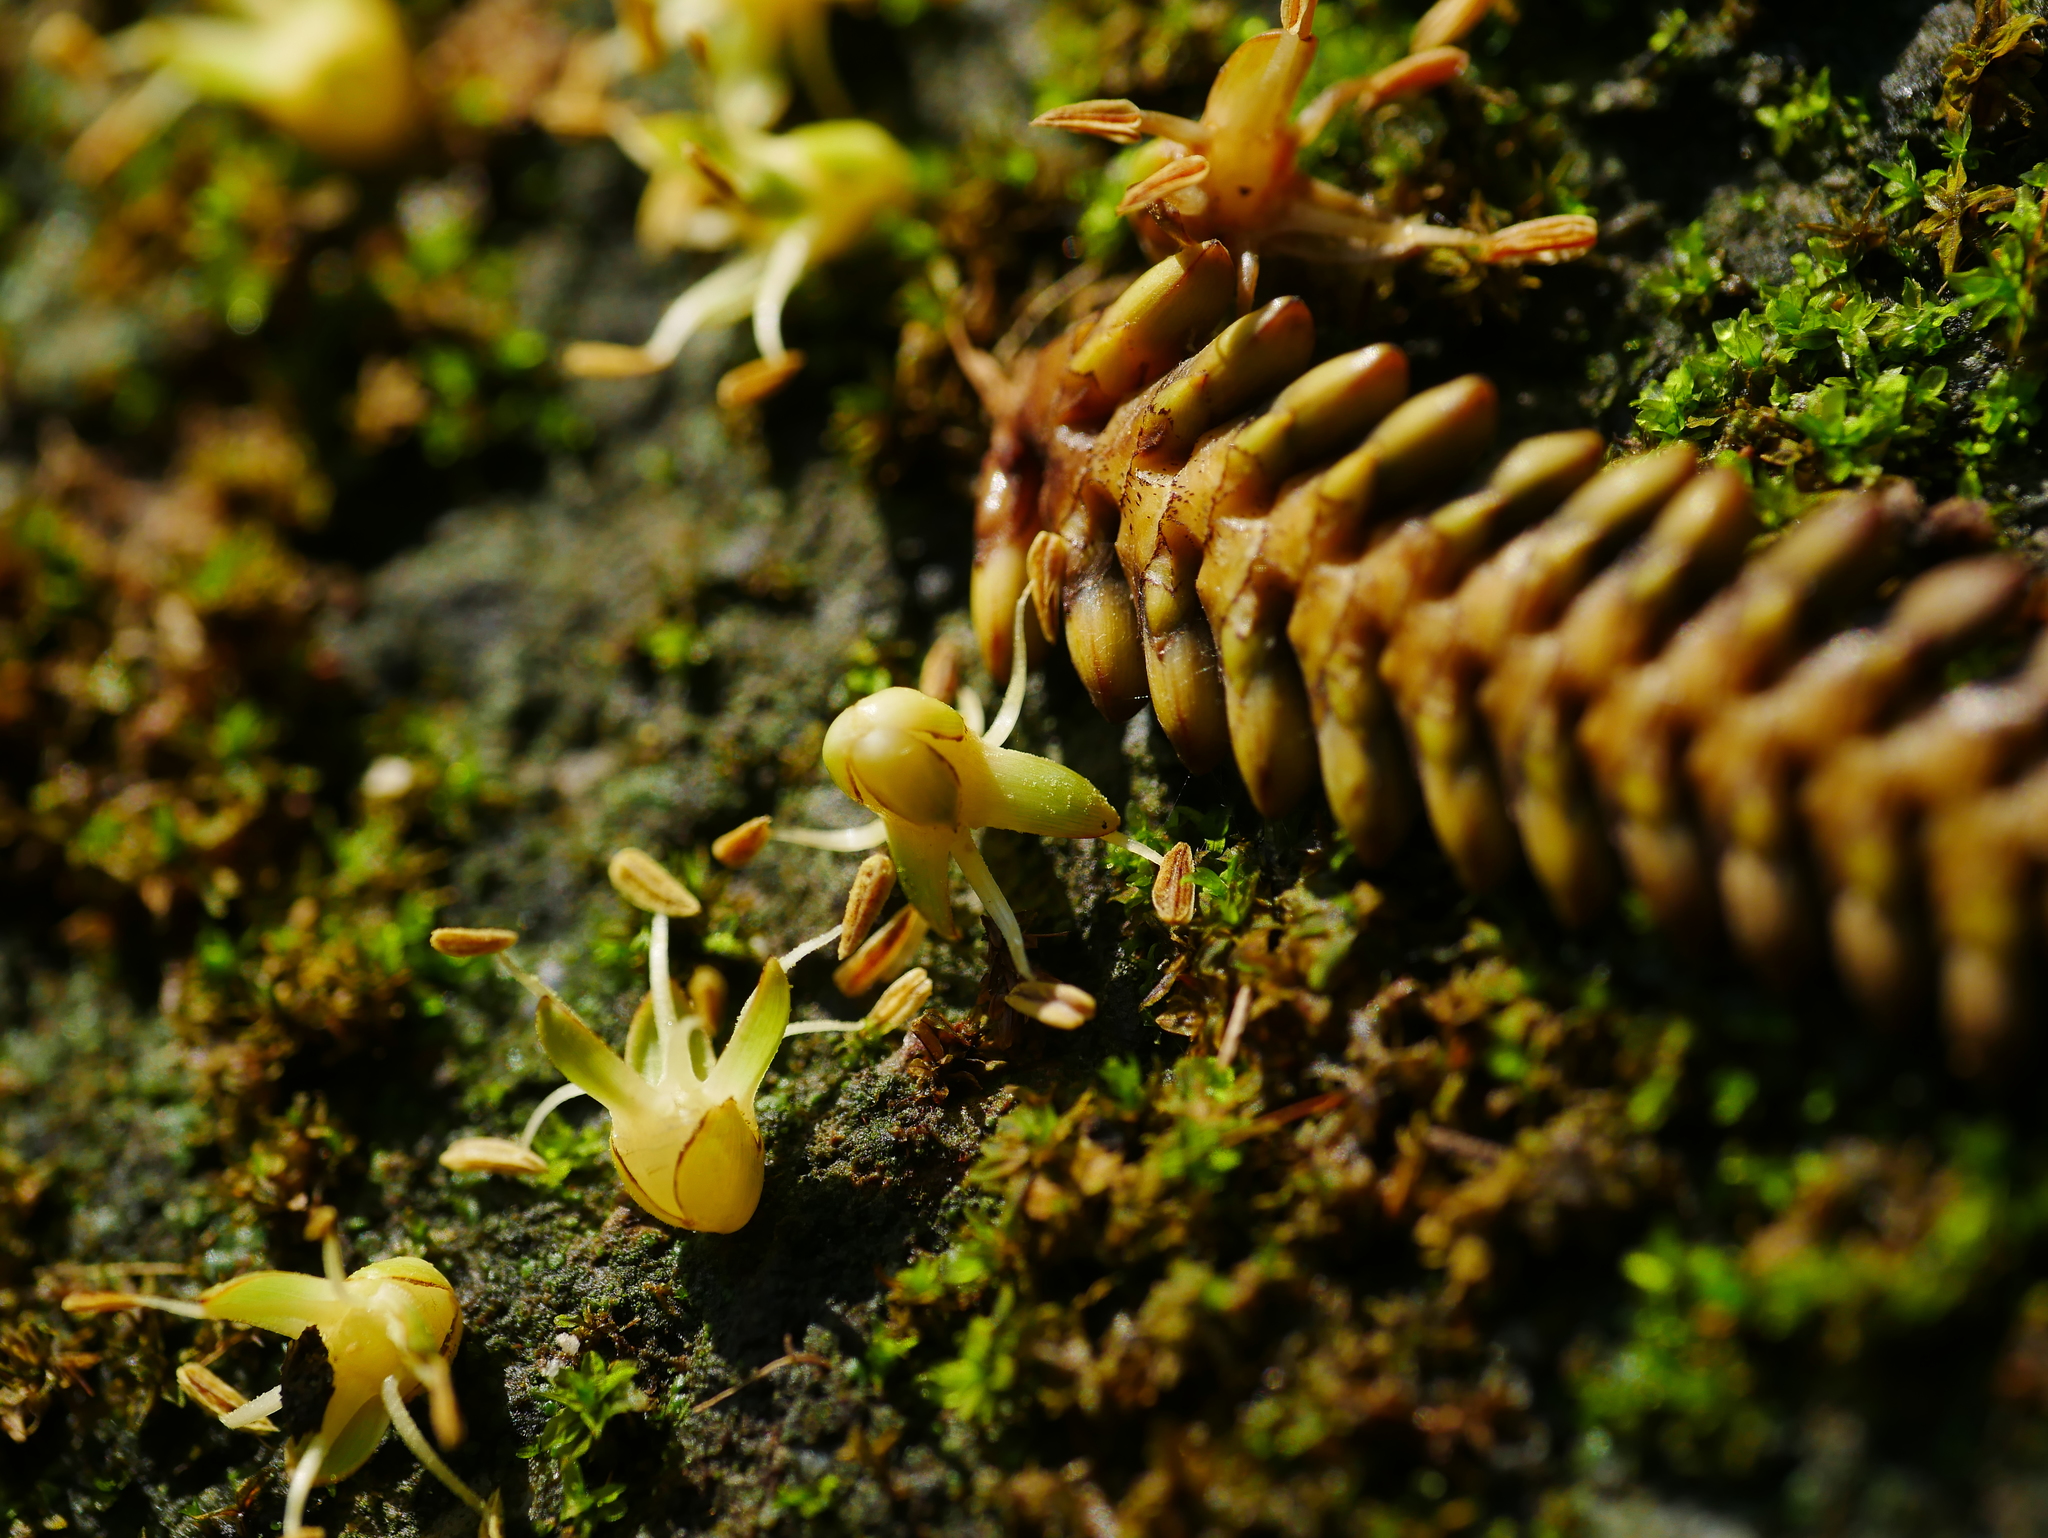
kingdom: Plantae
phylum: Tracheophyta
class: Liliopsida
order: Arecales
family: Arecaceae
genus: Calamus
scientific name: Calamus formosanus
